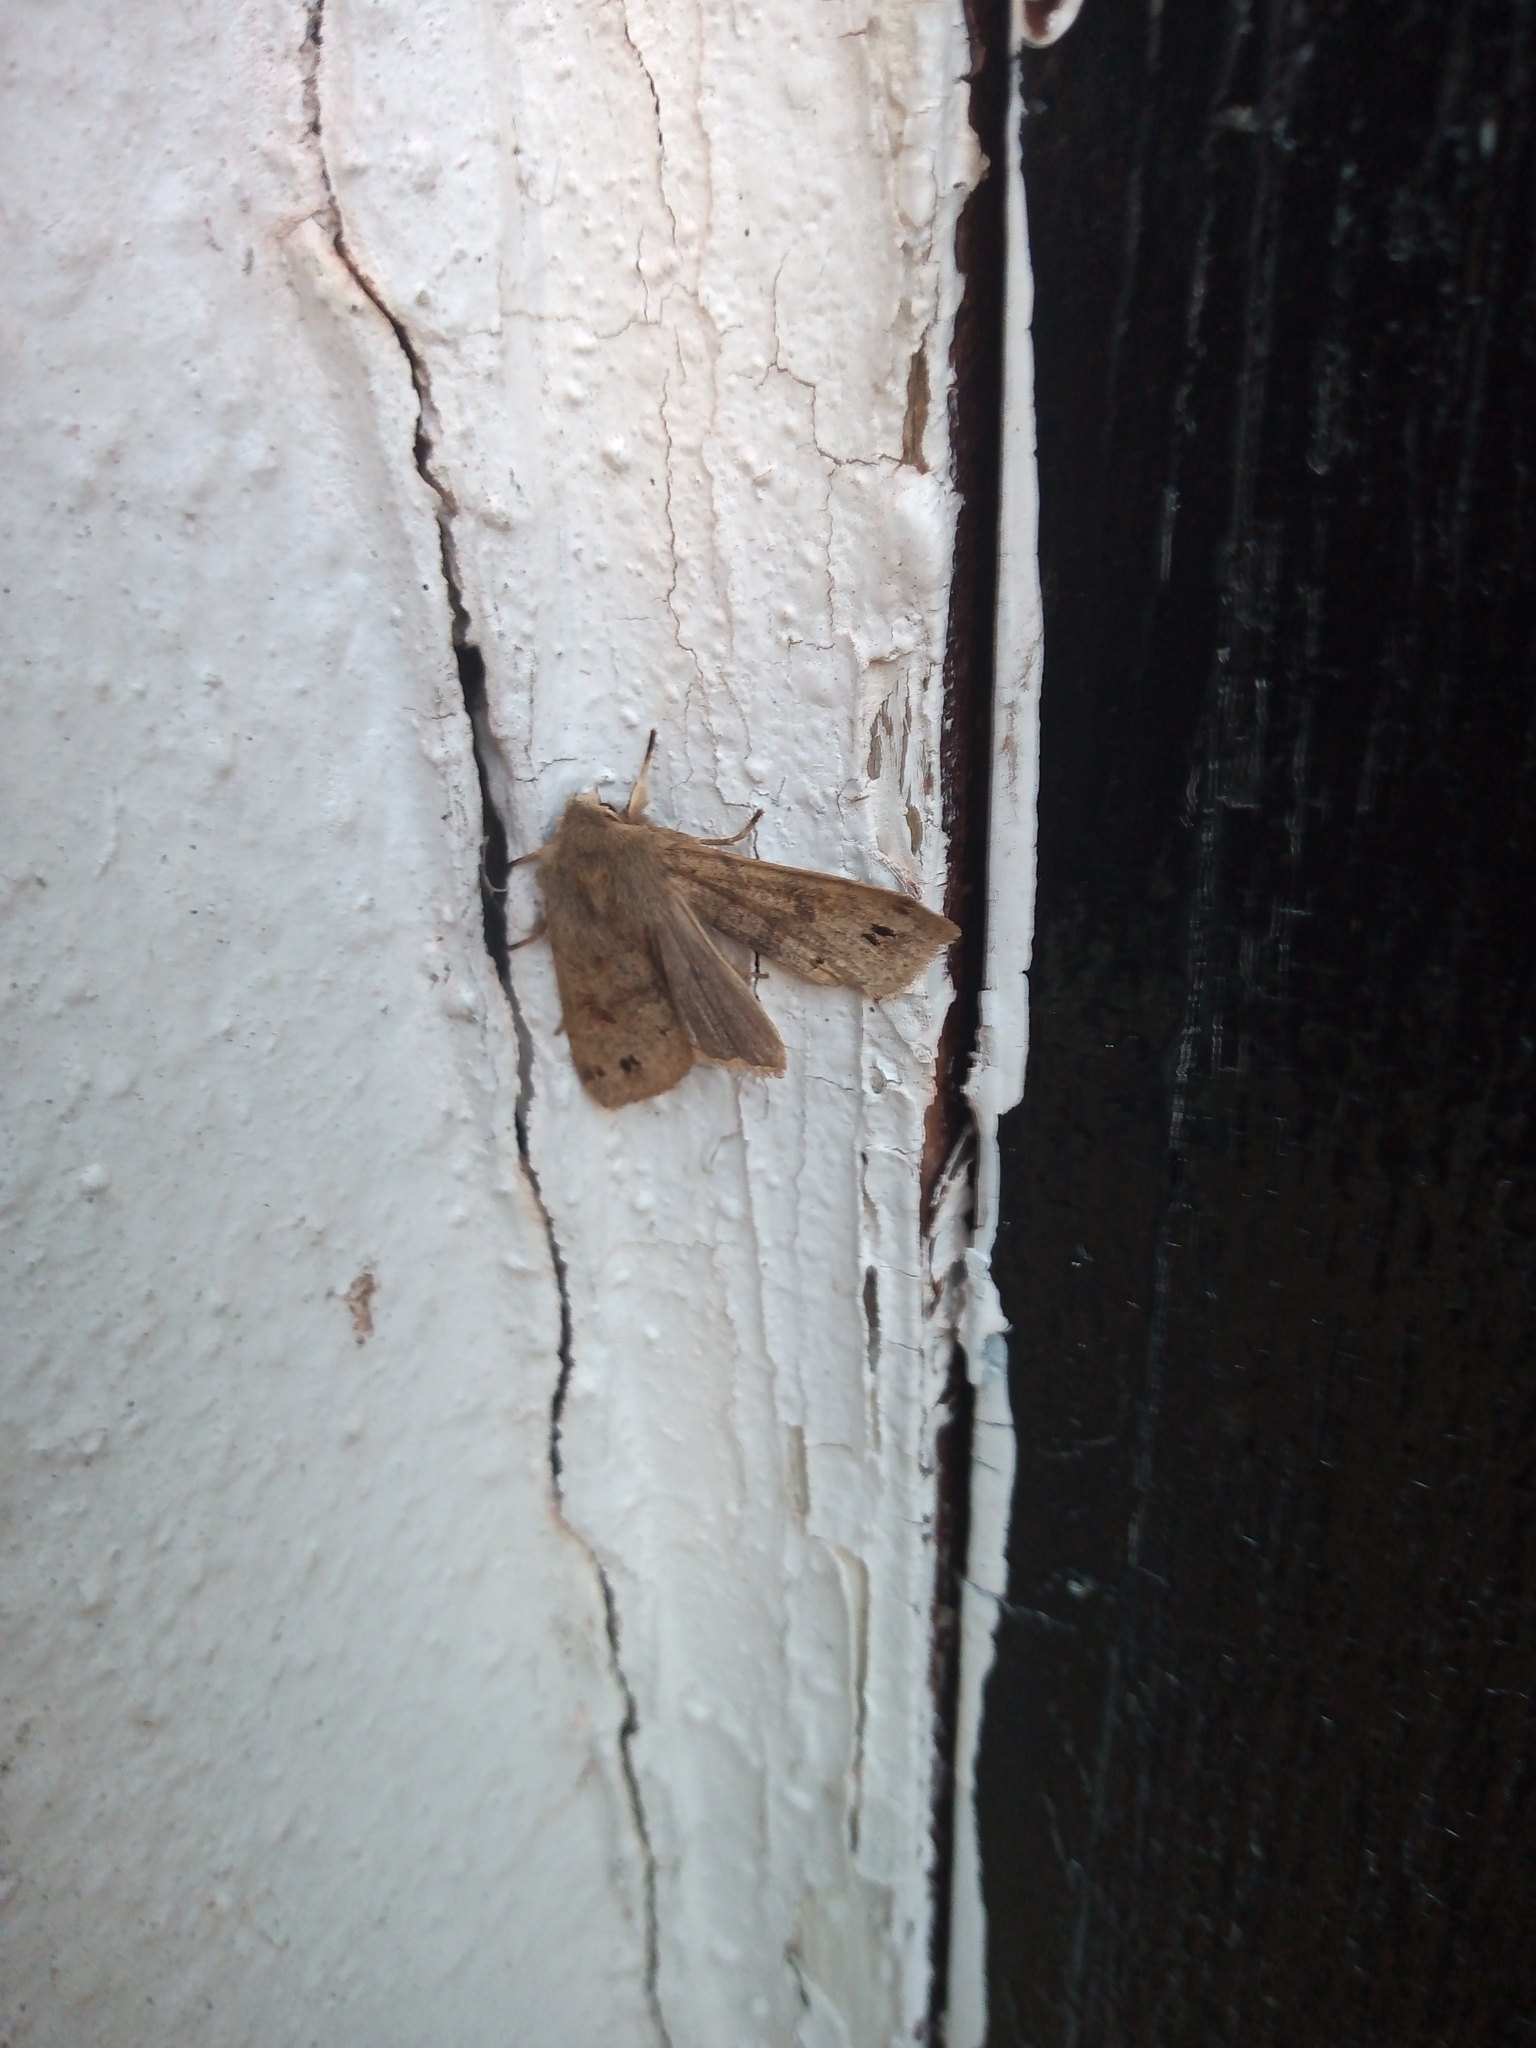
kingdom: Animalia
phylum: Arthropoda
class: Insecta
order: Lepidoptera
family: Noctuidae
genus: Anorthoa
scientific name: Anorthoa munda
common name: Twin-spotted quaker
